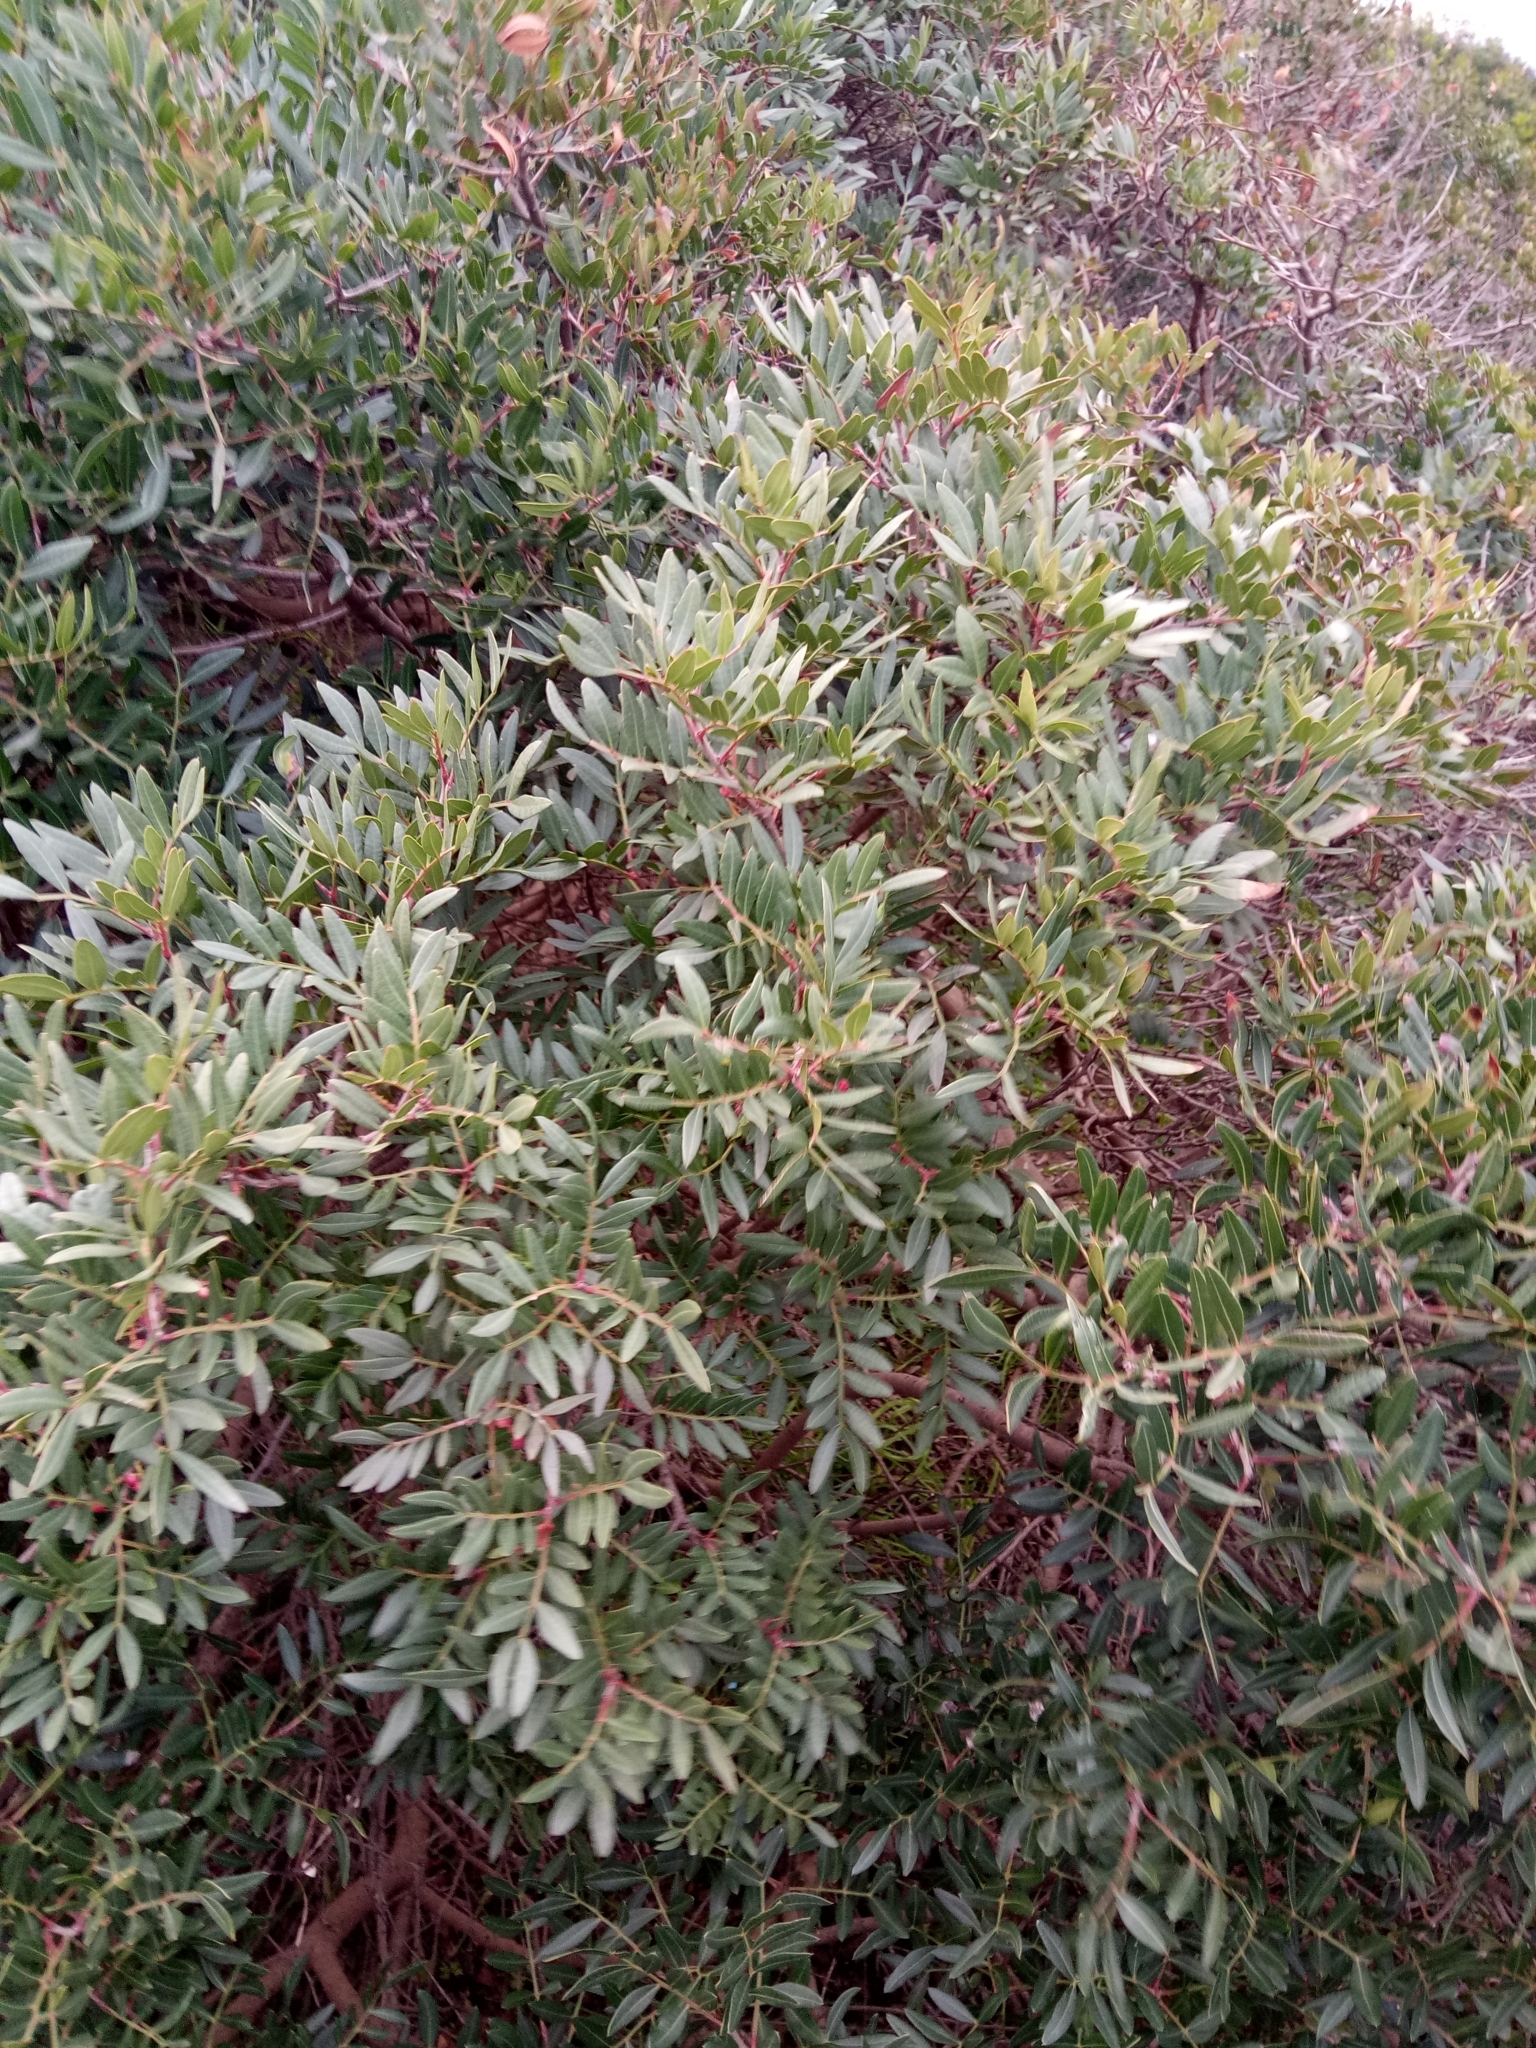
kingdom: Plantae
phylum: Tracheophyta
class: Magnoliopsida
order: Sapindales
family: Anacardiaceae
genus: Pistacia
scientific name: Pistacia lentiscus
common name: Lentisk
